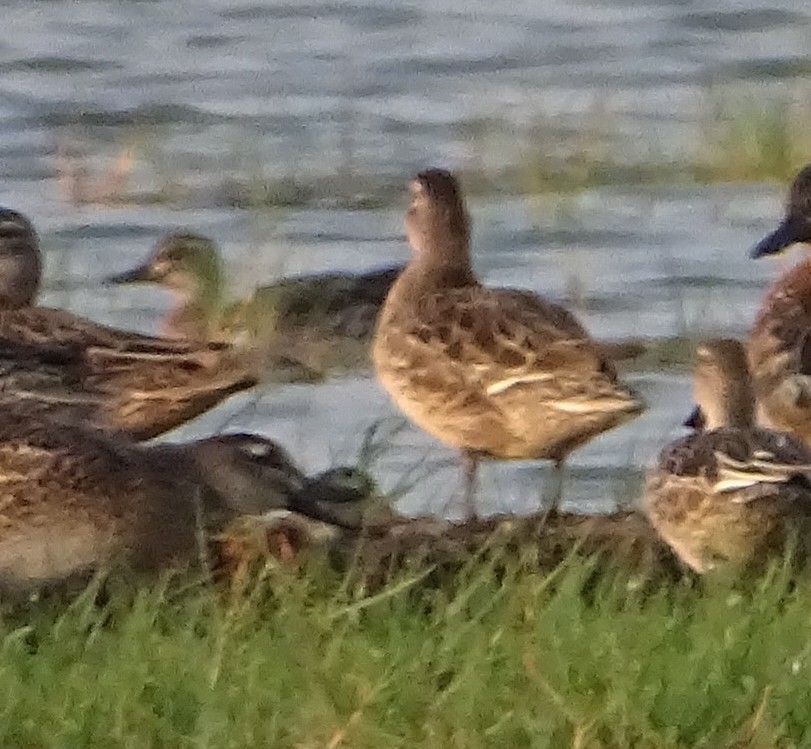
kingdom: Animalia
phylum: Chordata
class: Aves
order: Anseriformes
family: Anatidae
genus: Spatula
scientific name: Spatula querquedula
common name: Garganey
